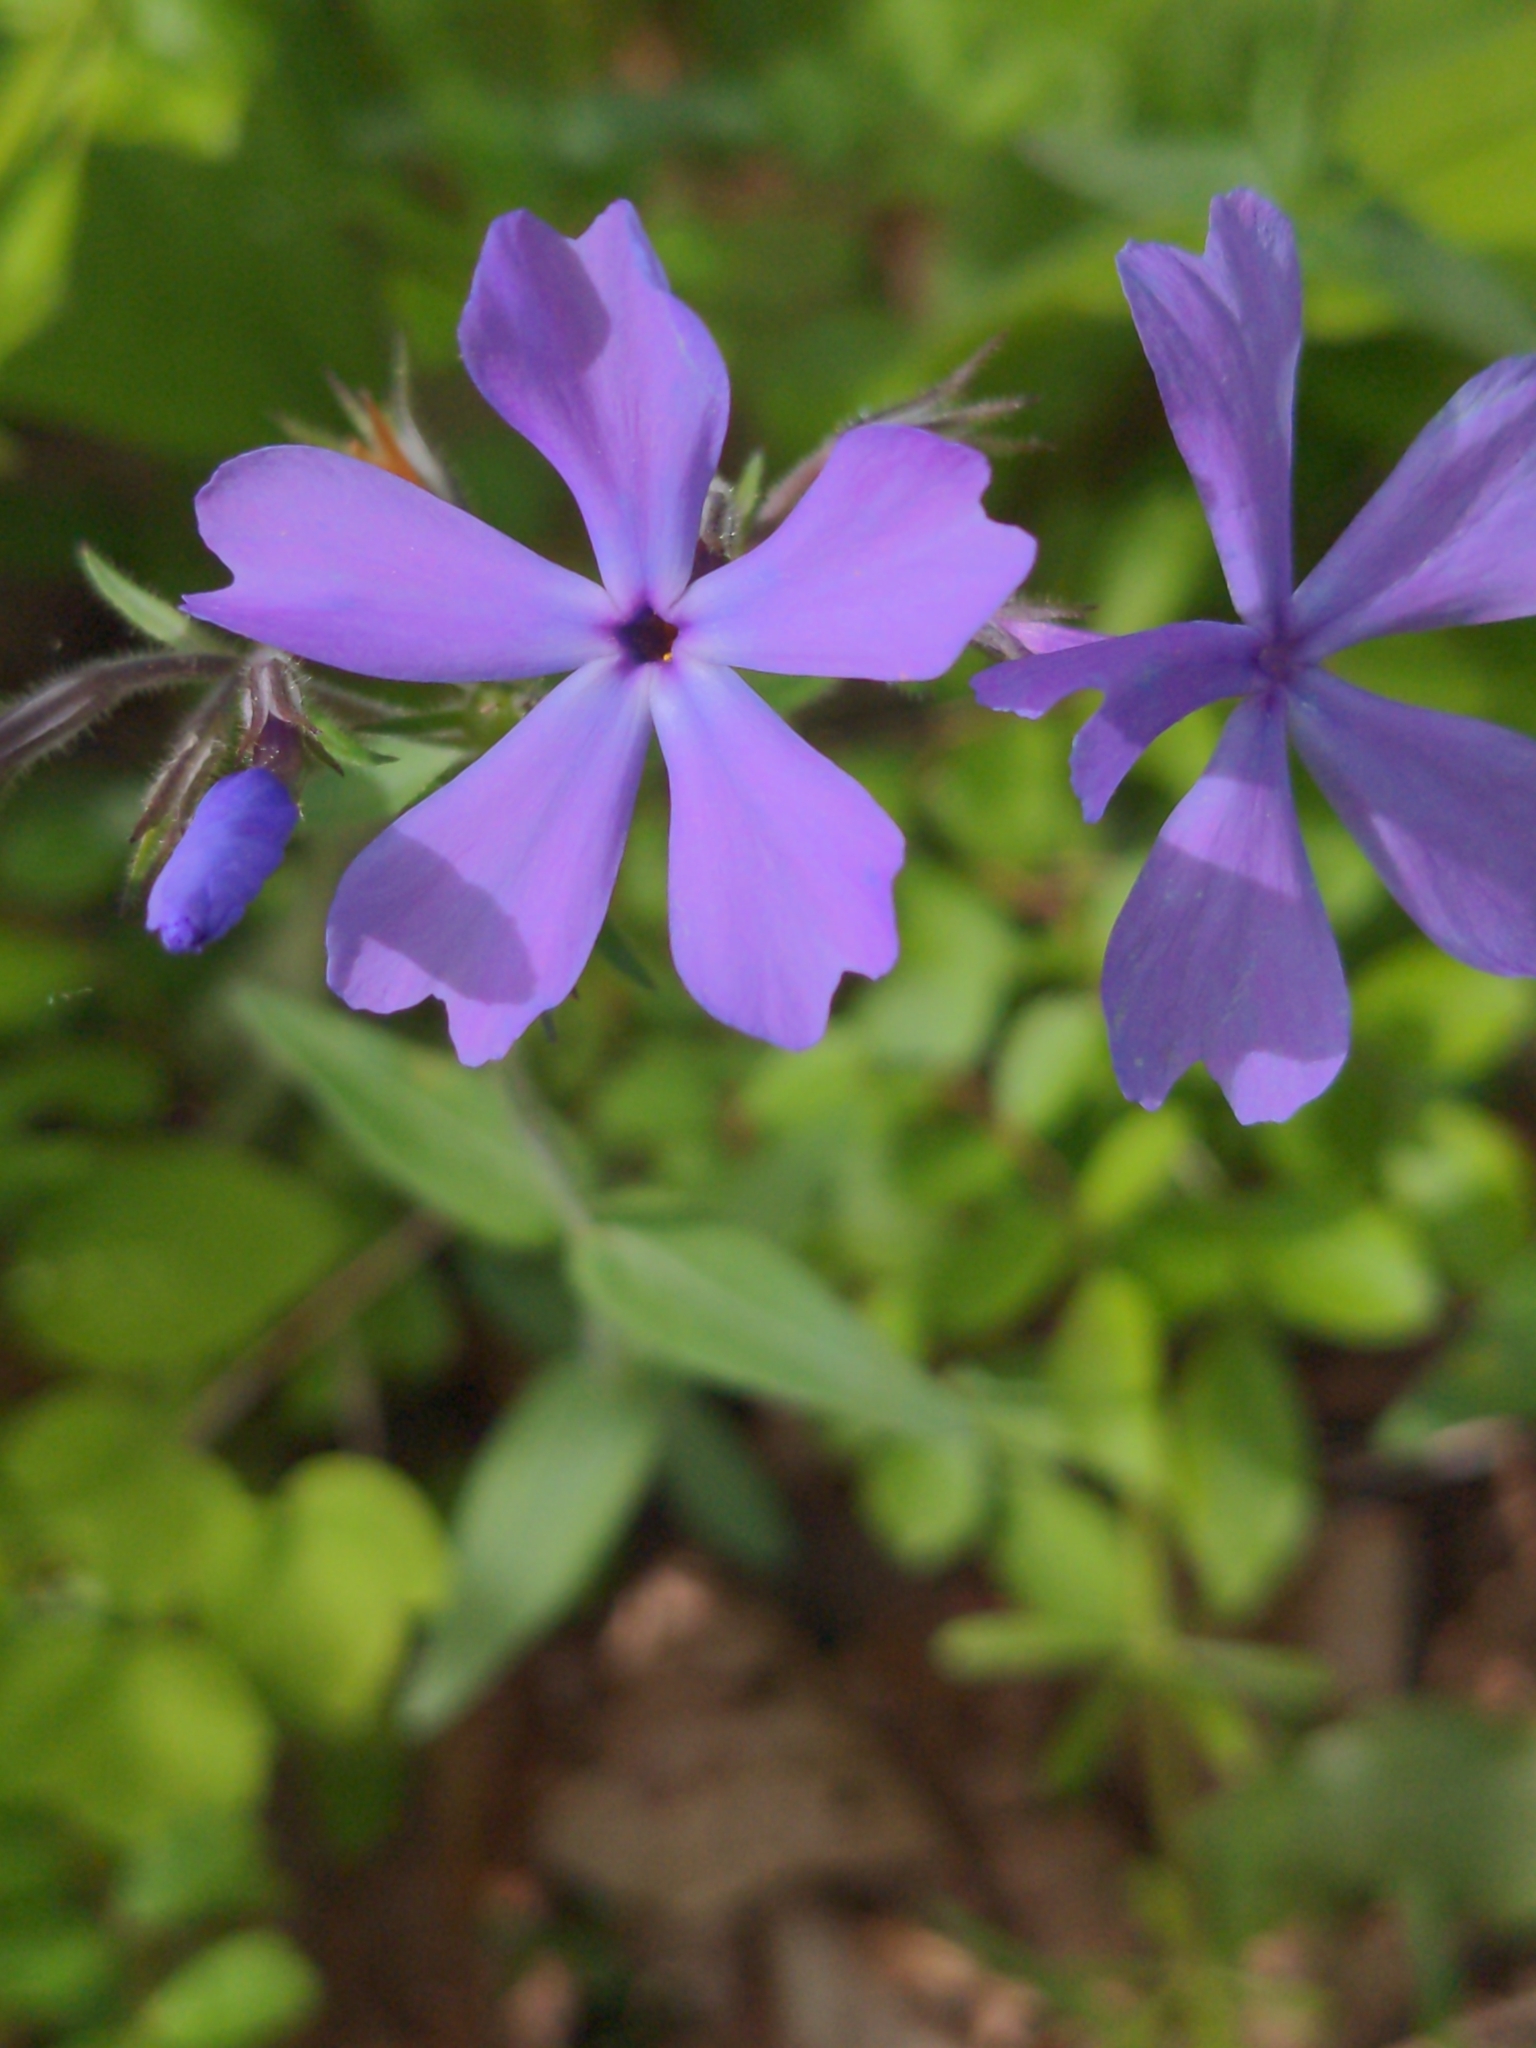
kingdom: Plantae
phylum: Tracheophyta
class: Magnoliopsida
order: Ericales
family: Polemoniaceae
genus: Phlox
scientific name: Phlox divaricata
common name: Blue phlox
